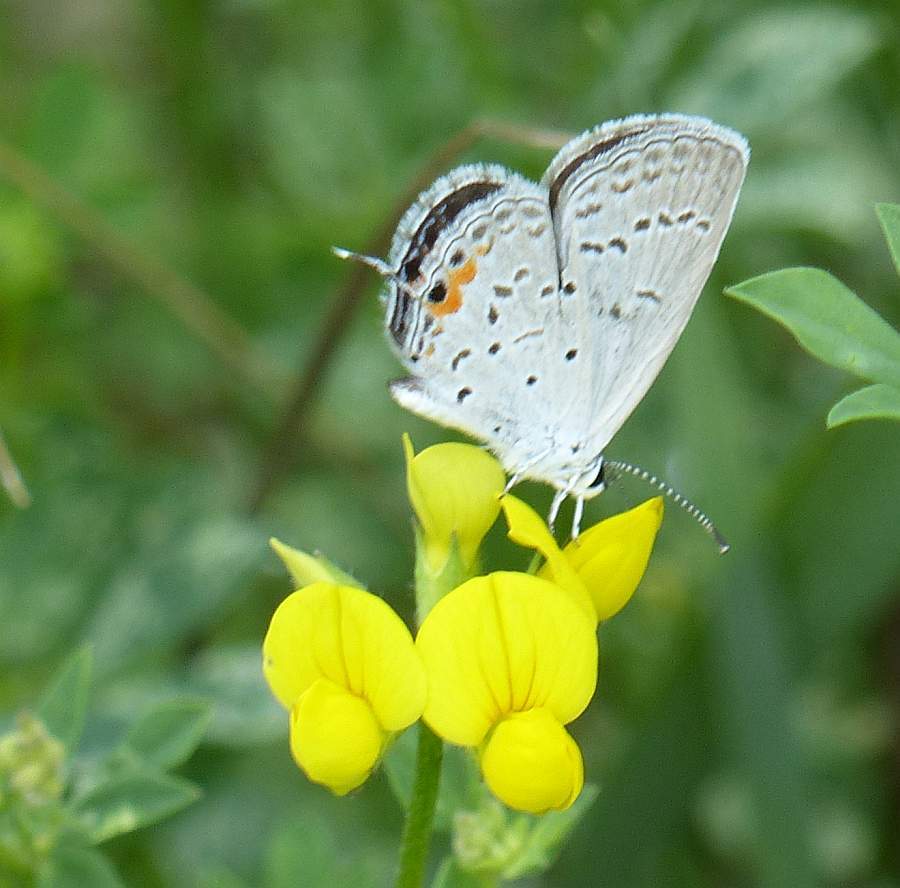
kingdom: Animalia
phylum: Arthropoda
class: Insecta
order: Lepidoptera
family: Lycaenidae
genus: Elkalyce
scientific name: Elkalyce comyntas
